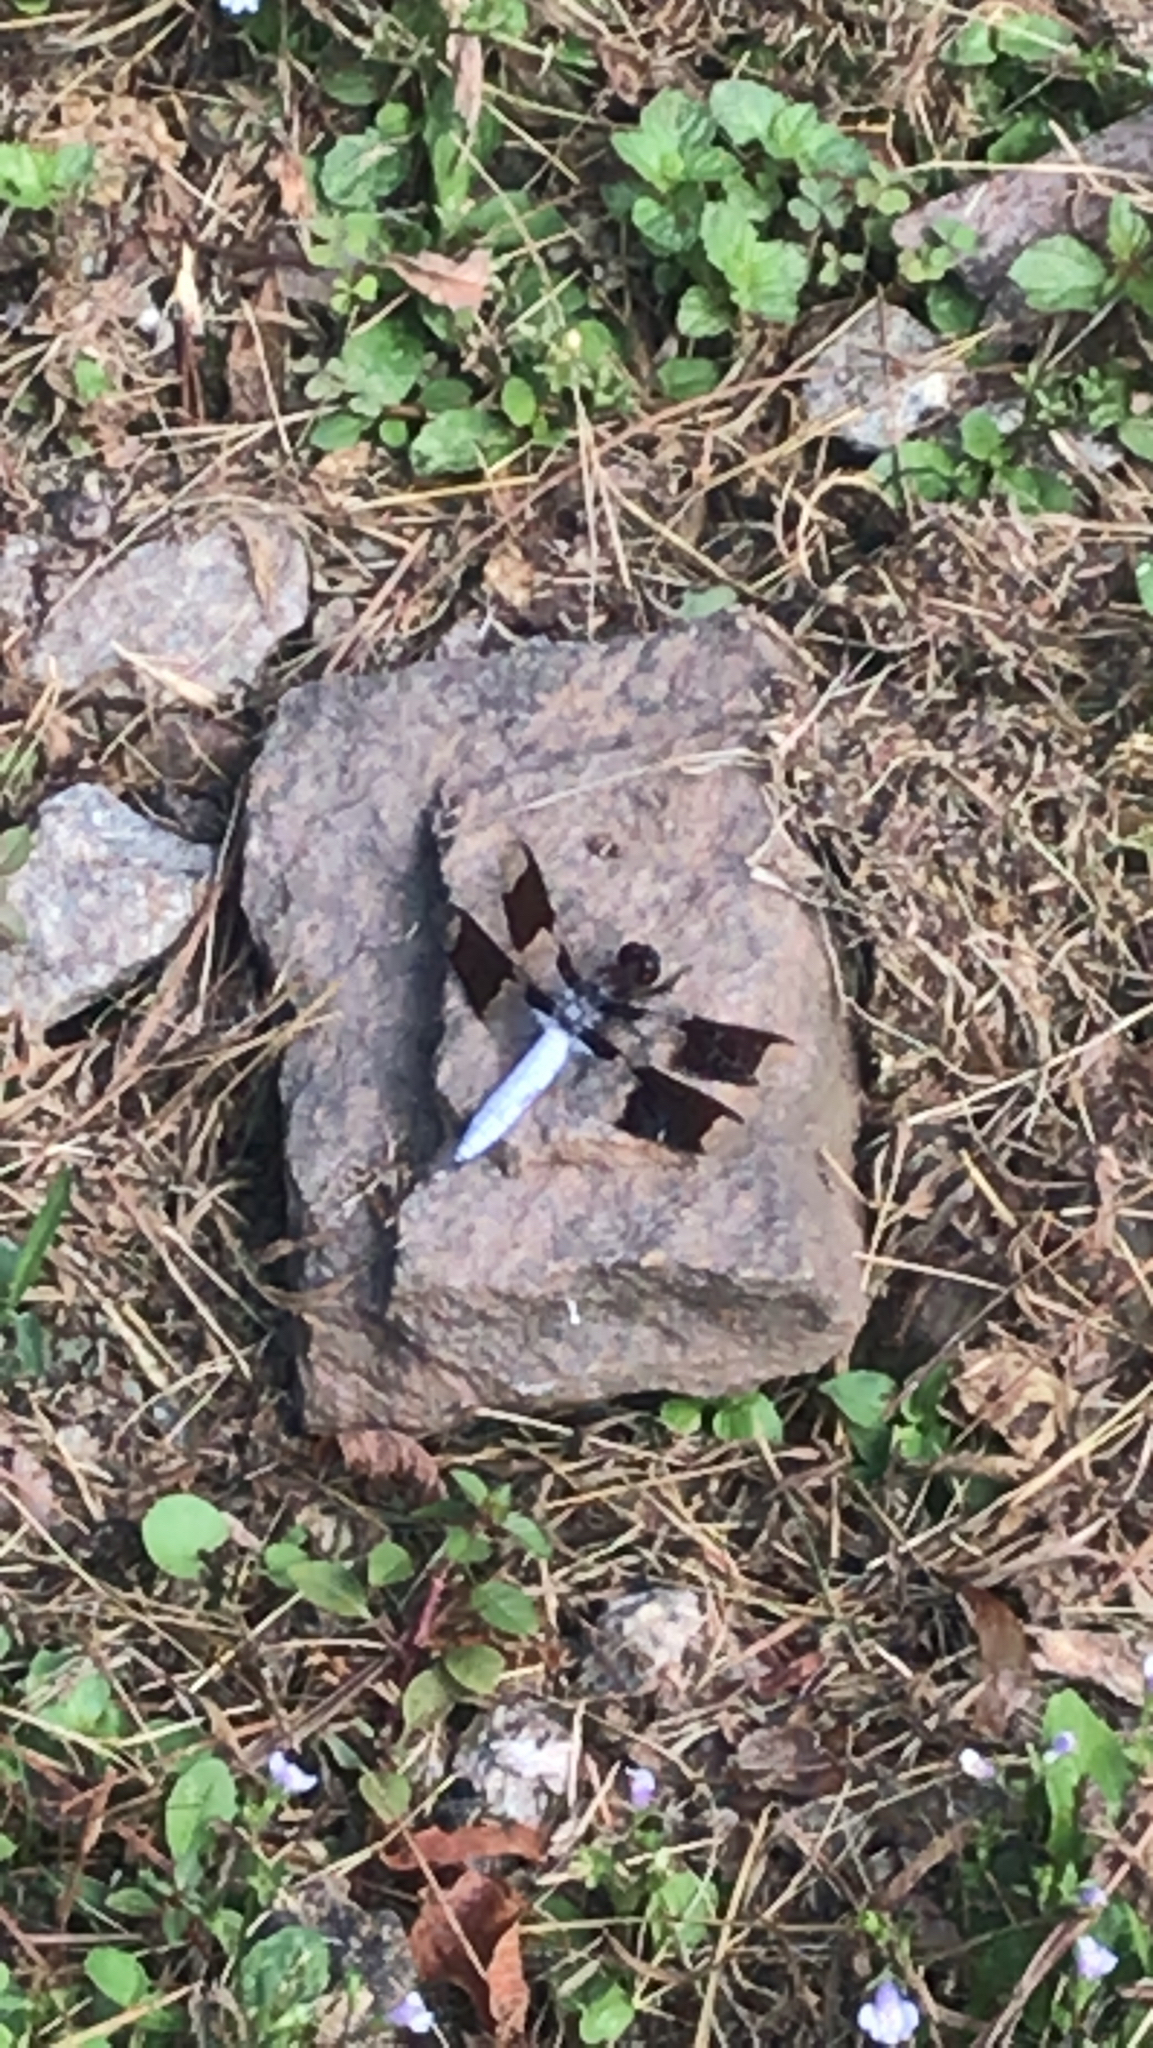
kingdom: Animalia
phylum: Arthropoda
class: Insecta
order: Odonata
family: Libellulidae
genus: Plathemis
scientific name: Plathemis lydia
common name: Common whitetail
